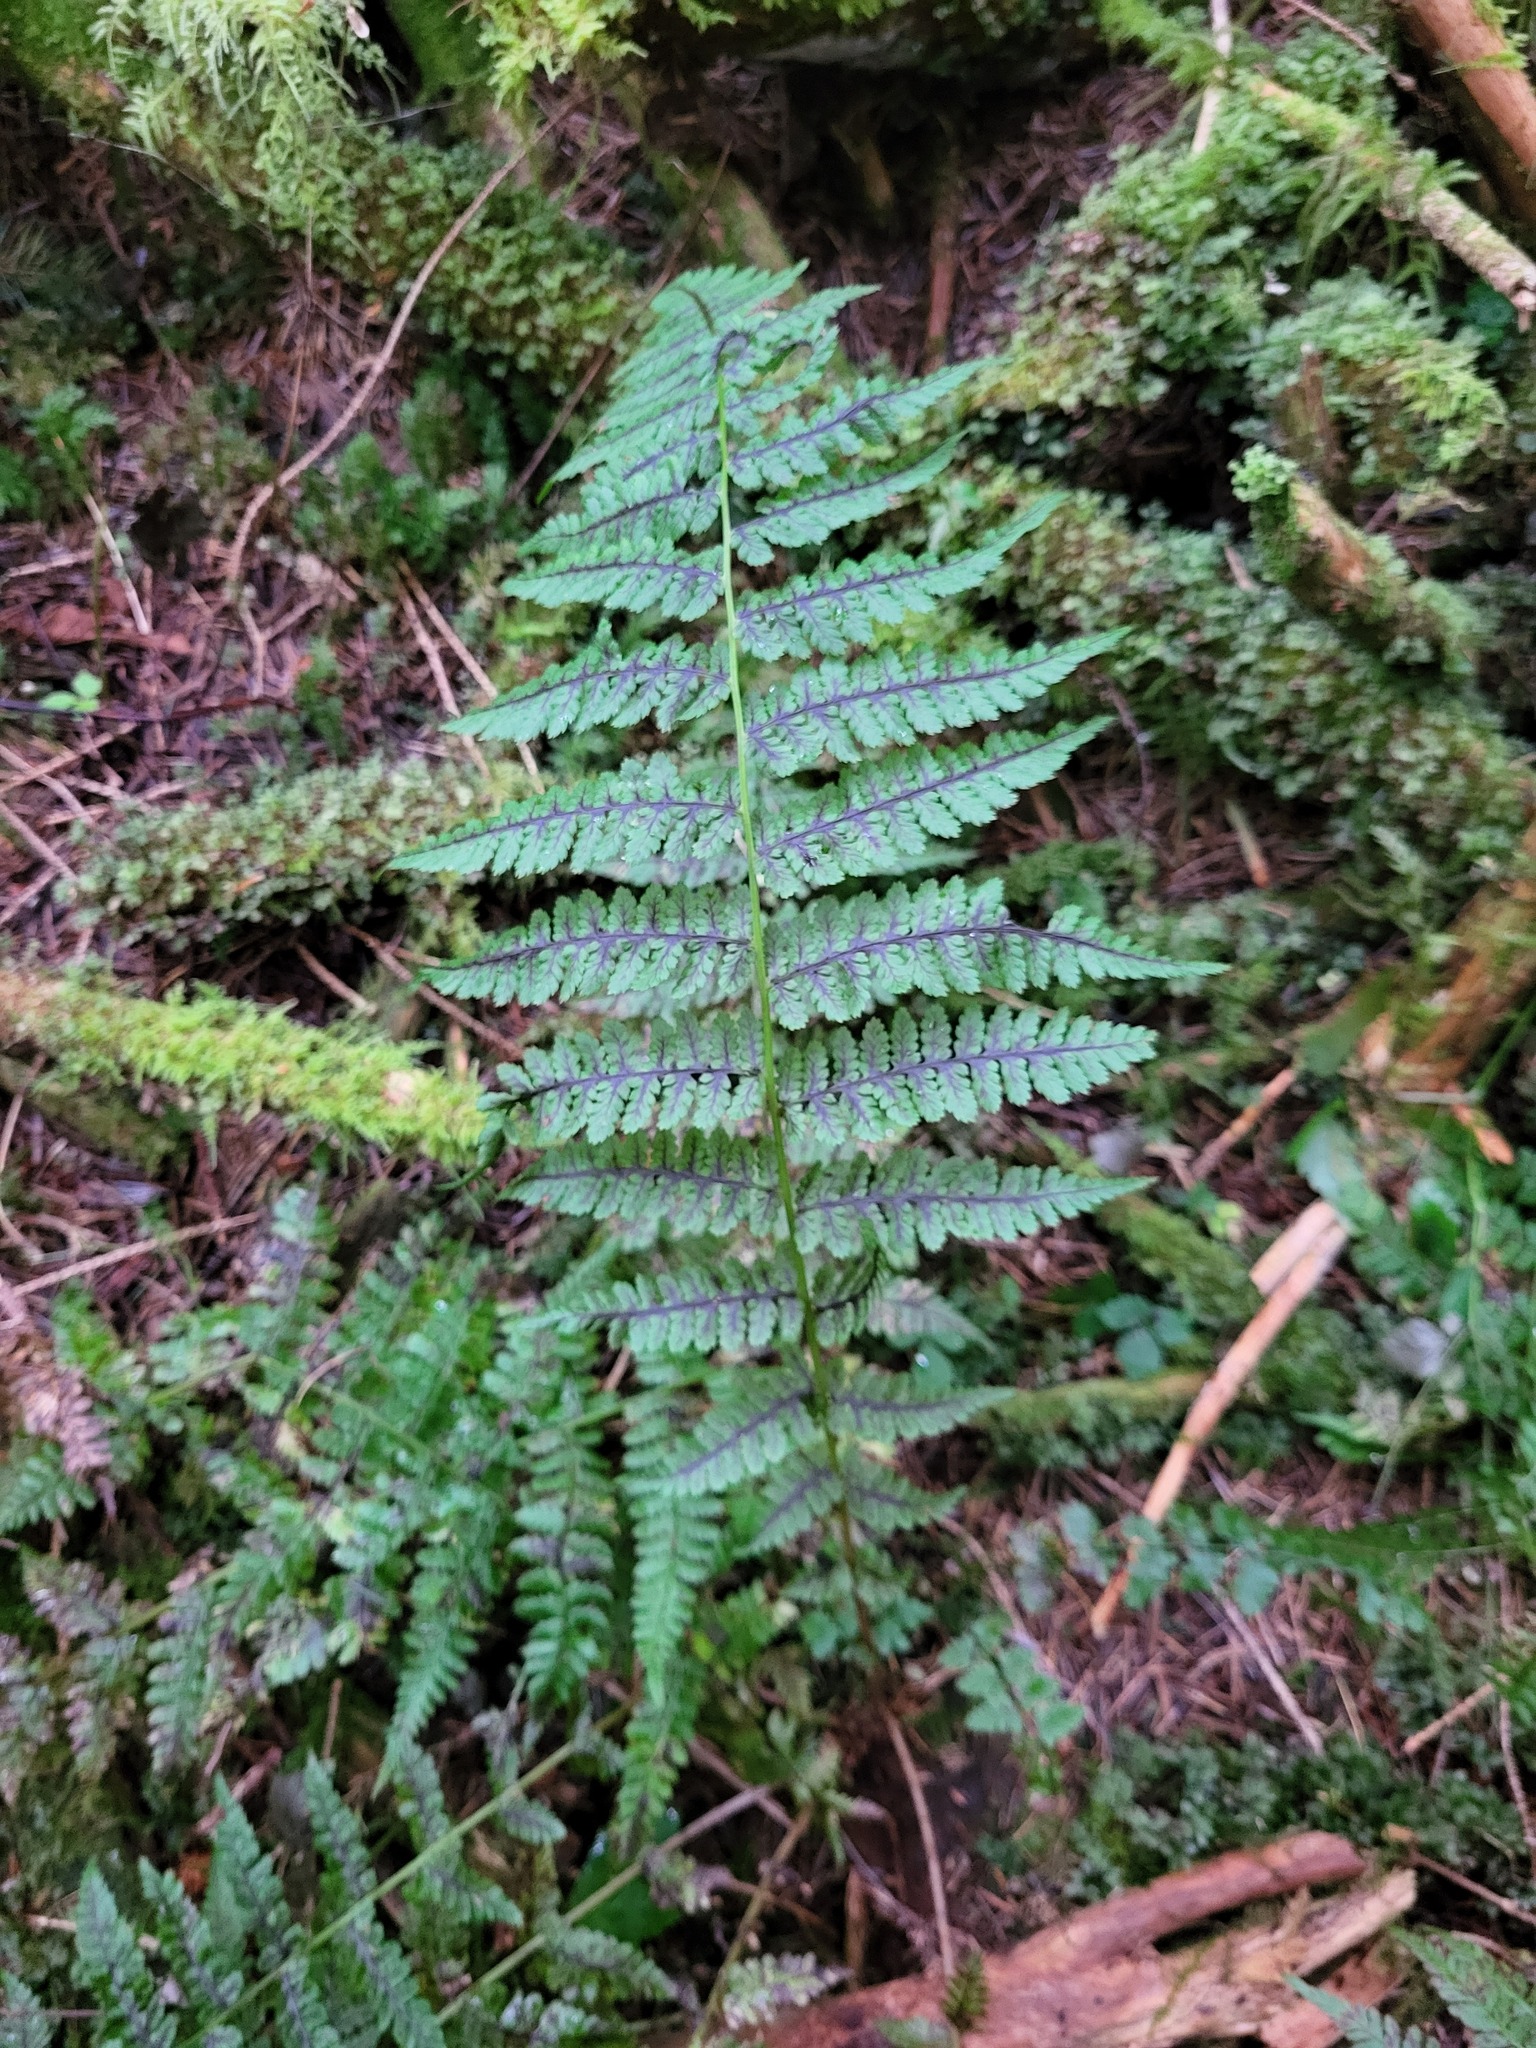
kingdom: Plantae
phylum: Tracheophyta
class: Polypodiopsida
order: Polypodiales
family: Athyriaceae
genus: Athyrium
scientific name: Athyrium filix-femina
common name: Lady fern
